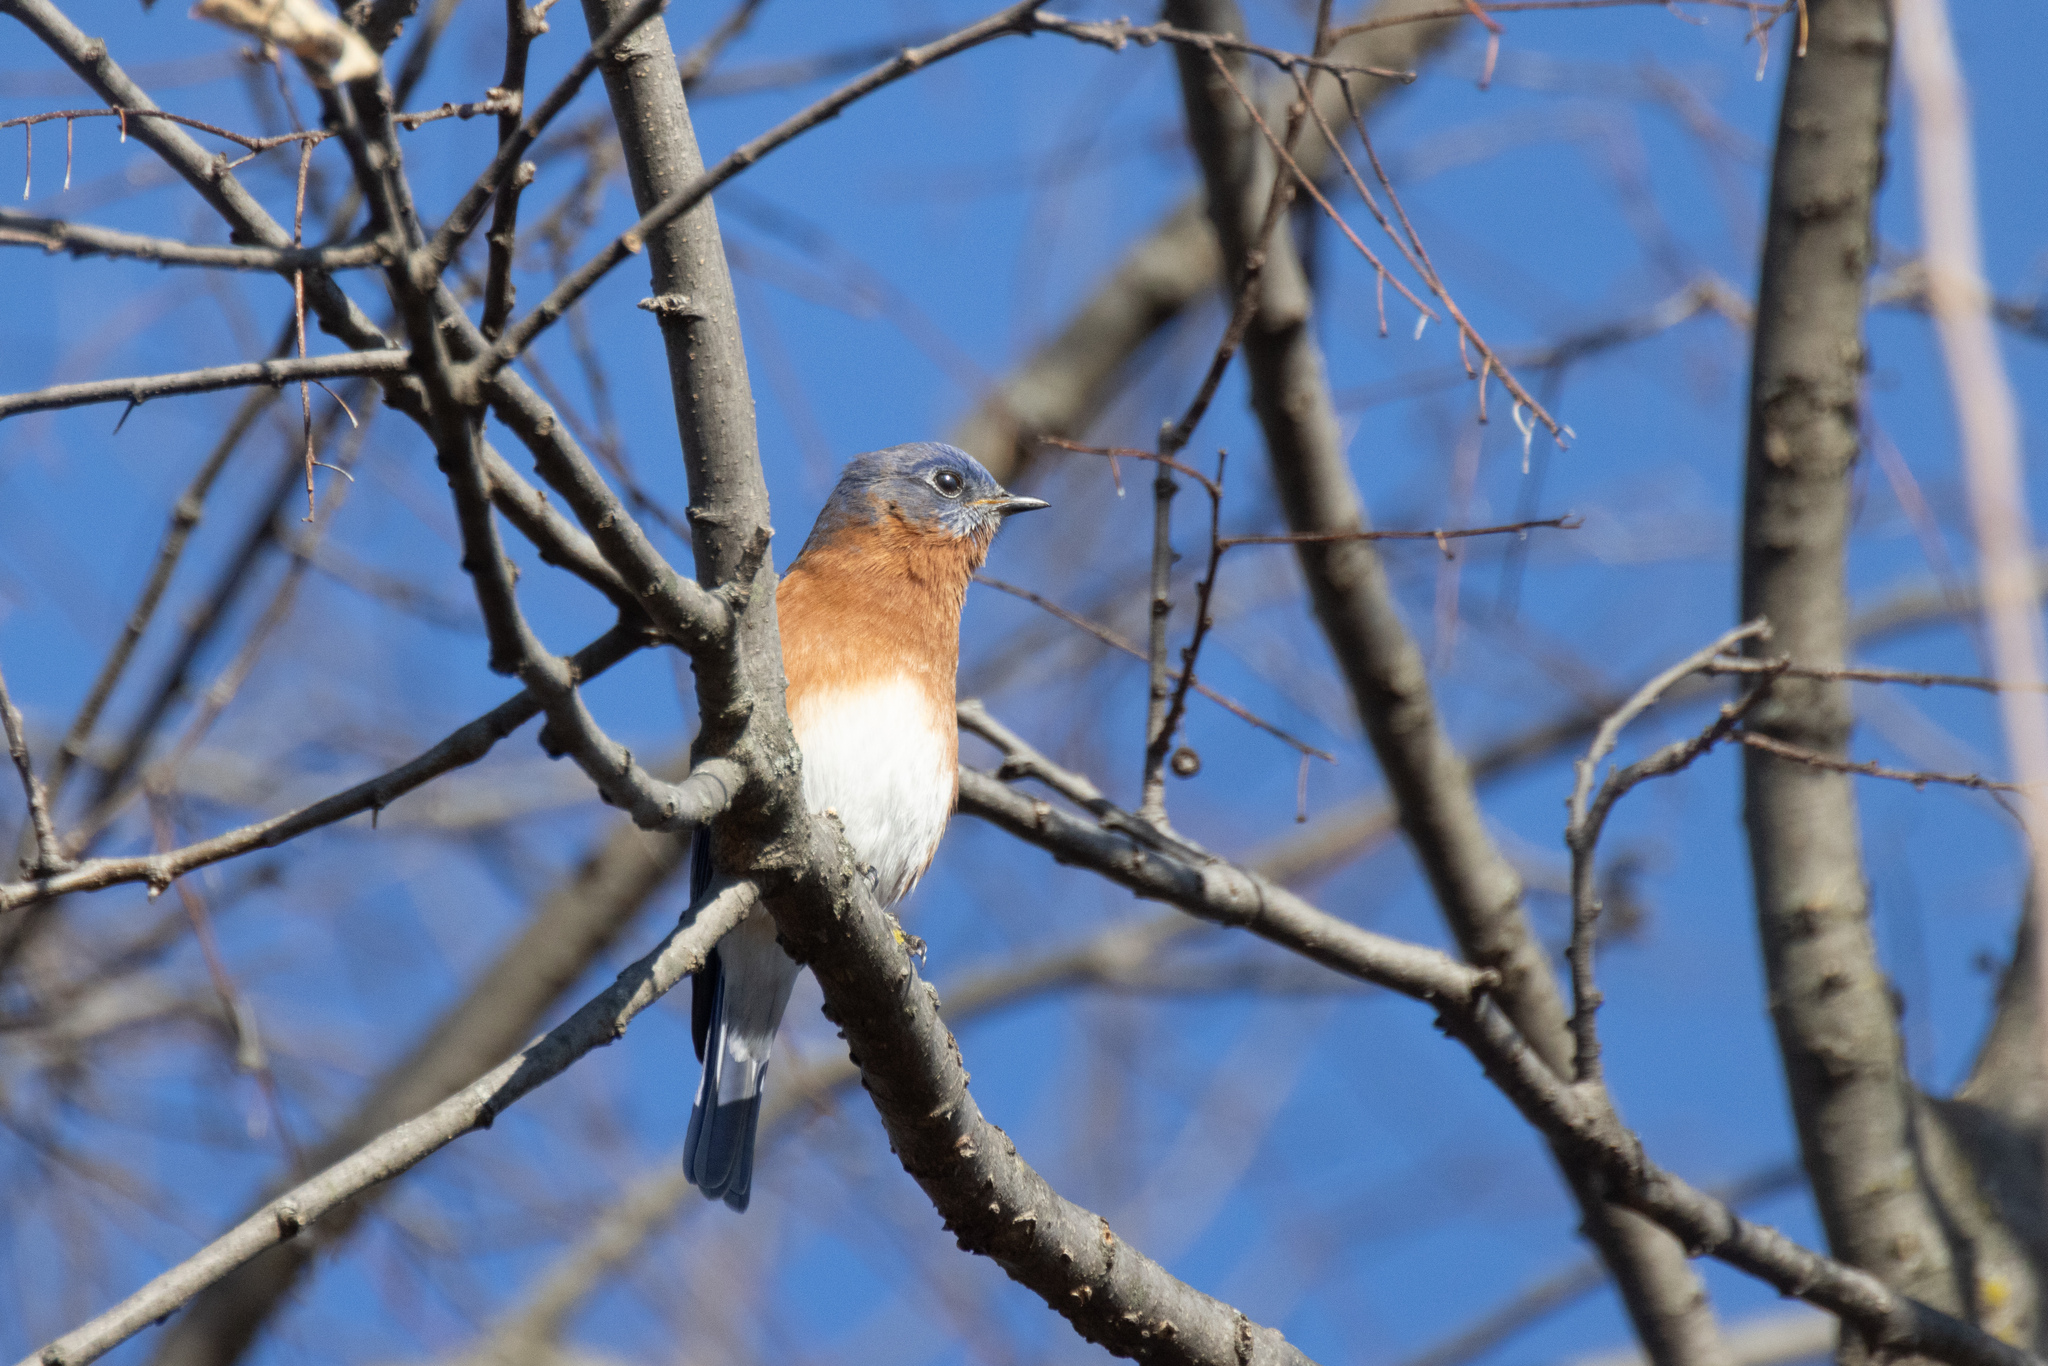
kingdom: Animalia
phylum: Chordata
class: Aves
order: Passeriformes
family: Turdidae
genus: Sialia
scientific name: Sialia sialis
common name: Eastern bluebird
